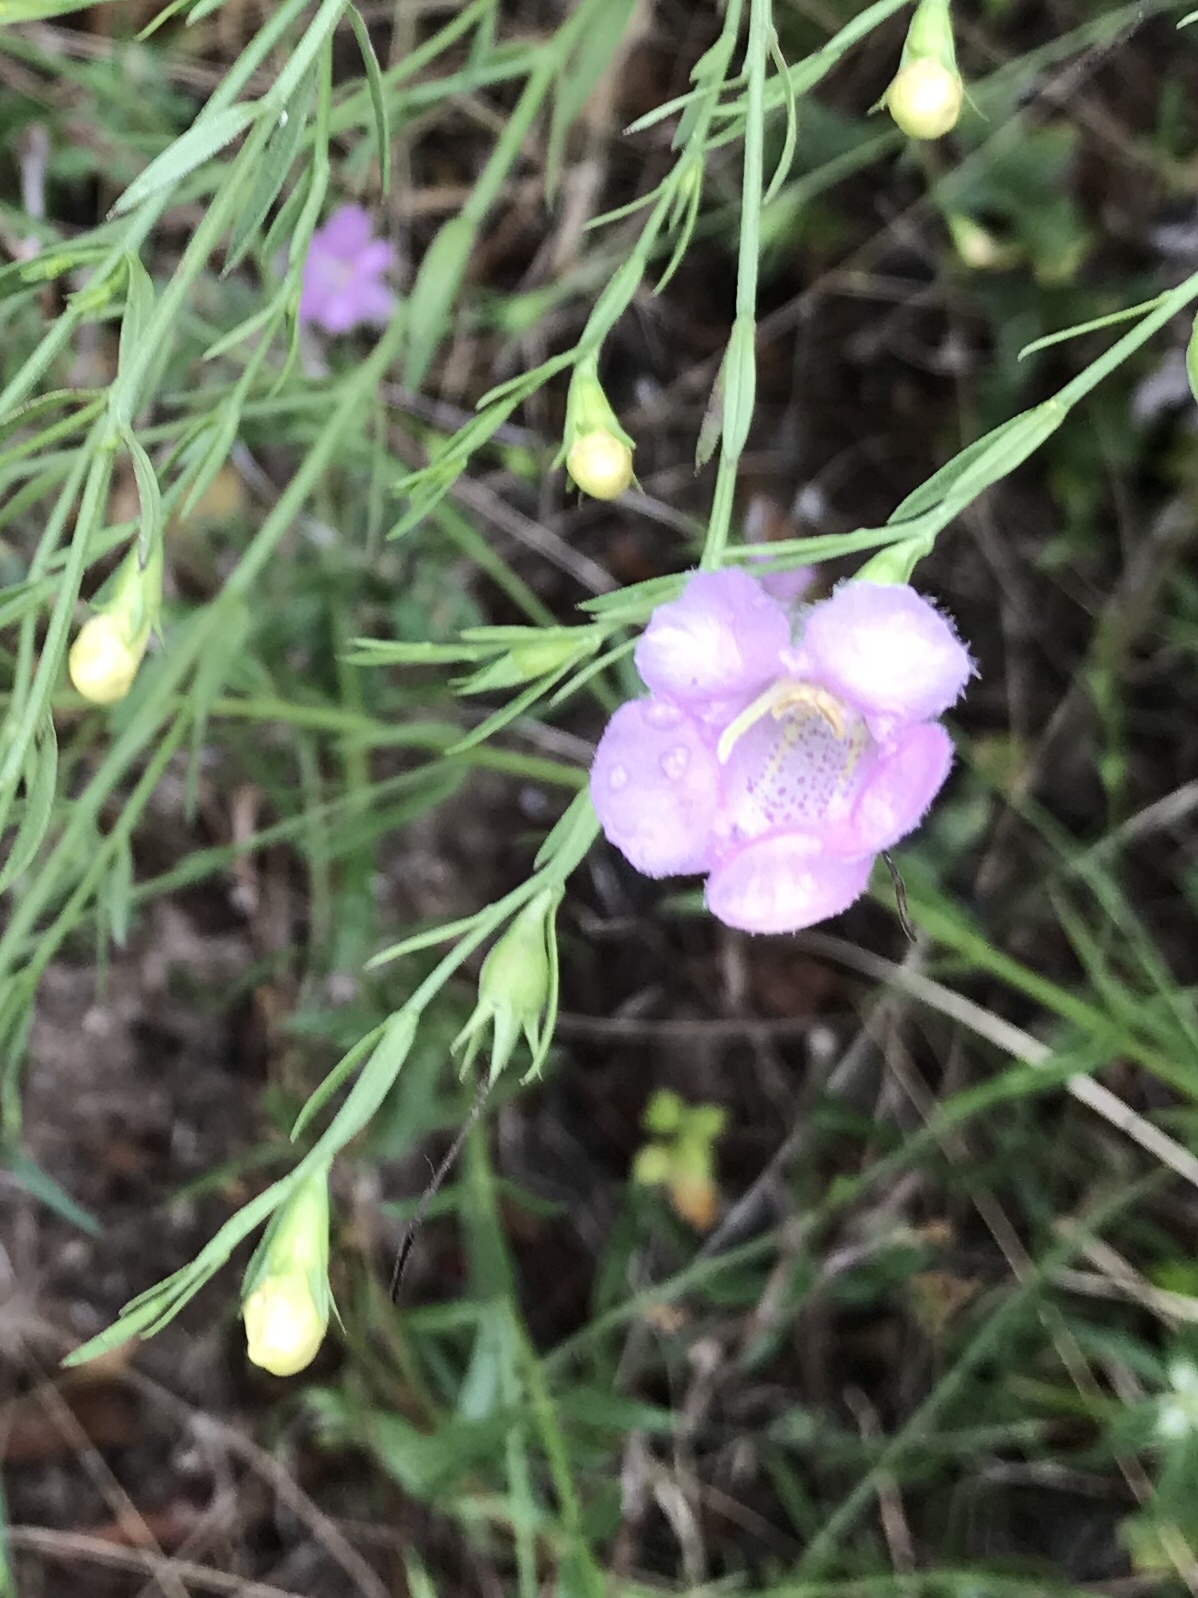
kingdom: Plantae
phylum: Tracheophyta
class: Magnoliopsida
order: Lamiales
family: Orobanchaceae
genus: Agalinis
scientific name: Agalinis heterophylla
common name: Prairie agalinis
